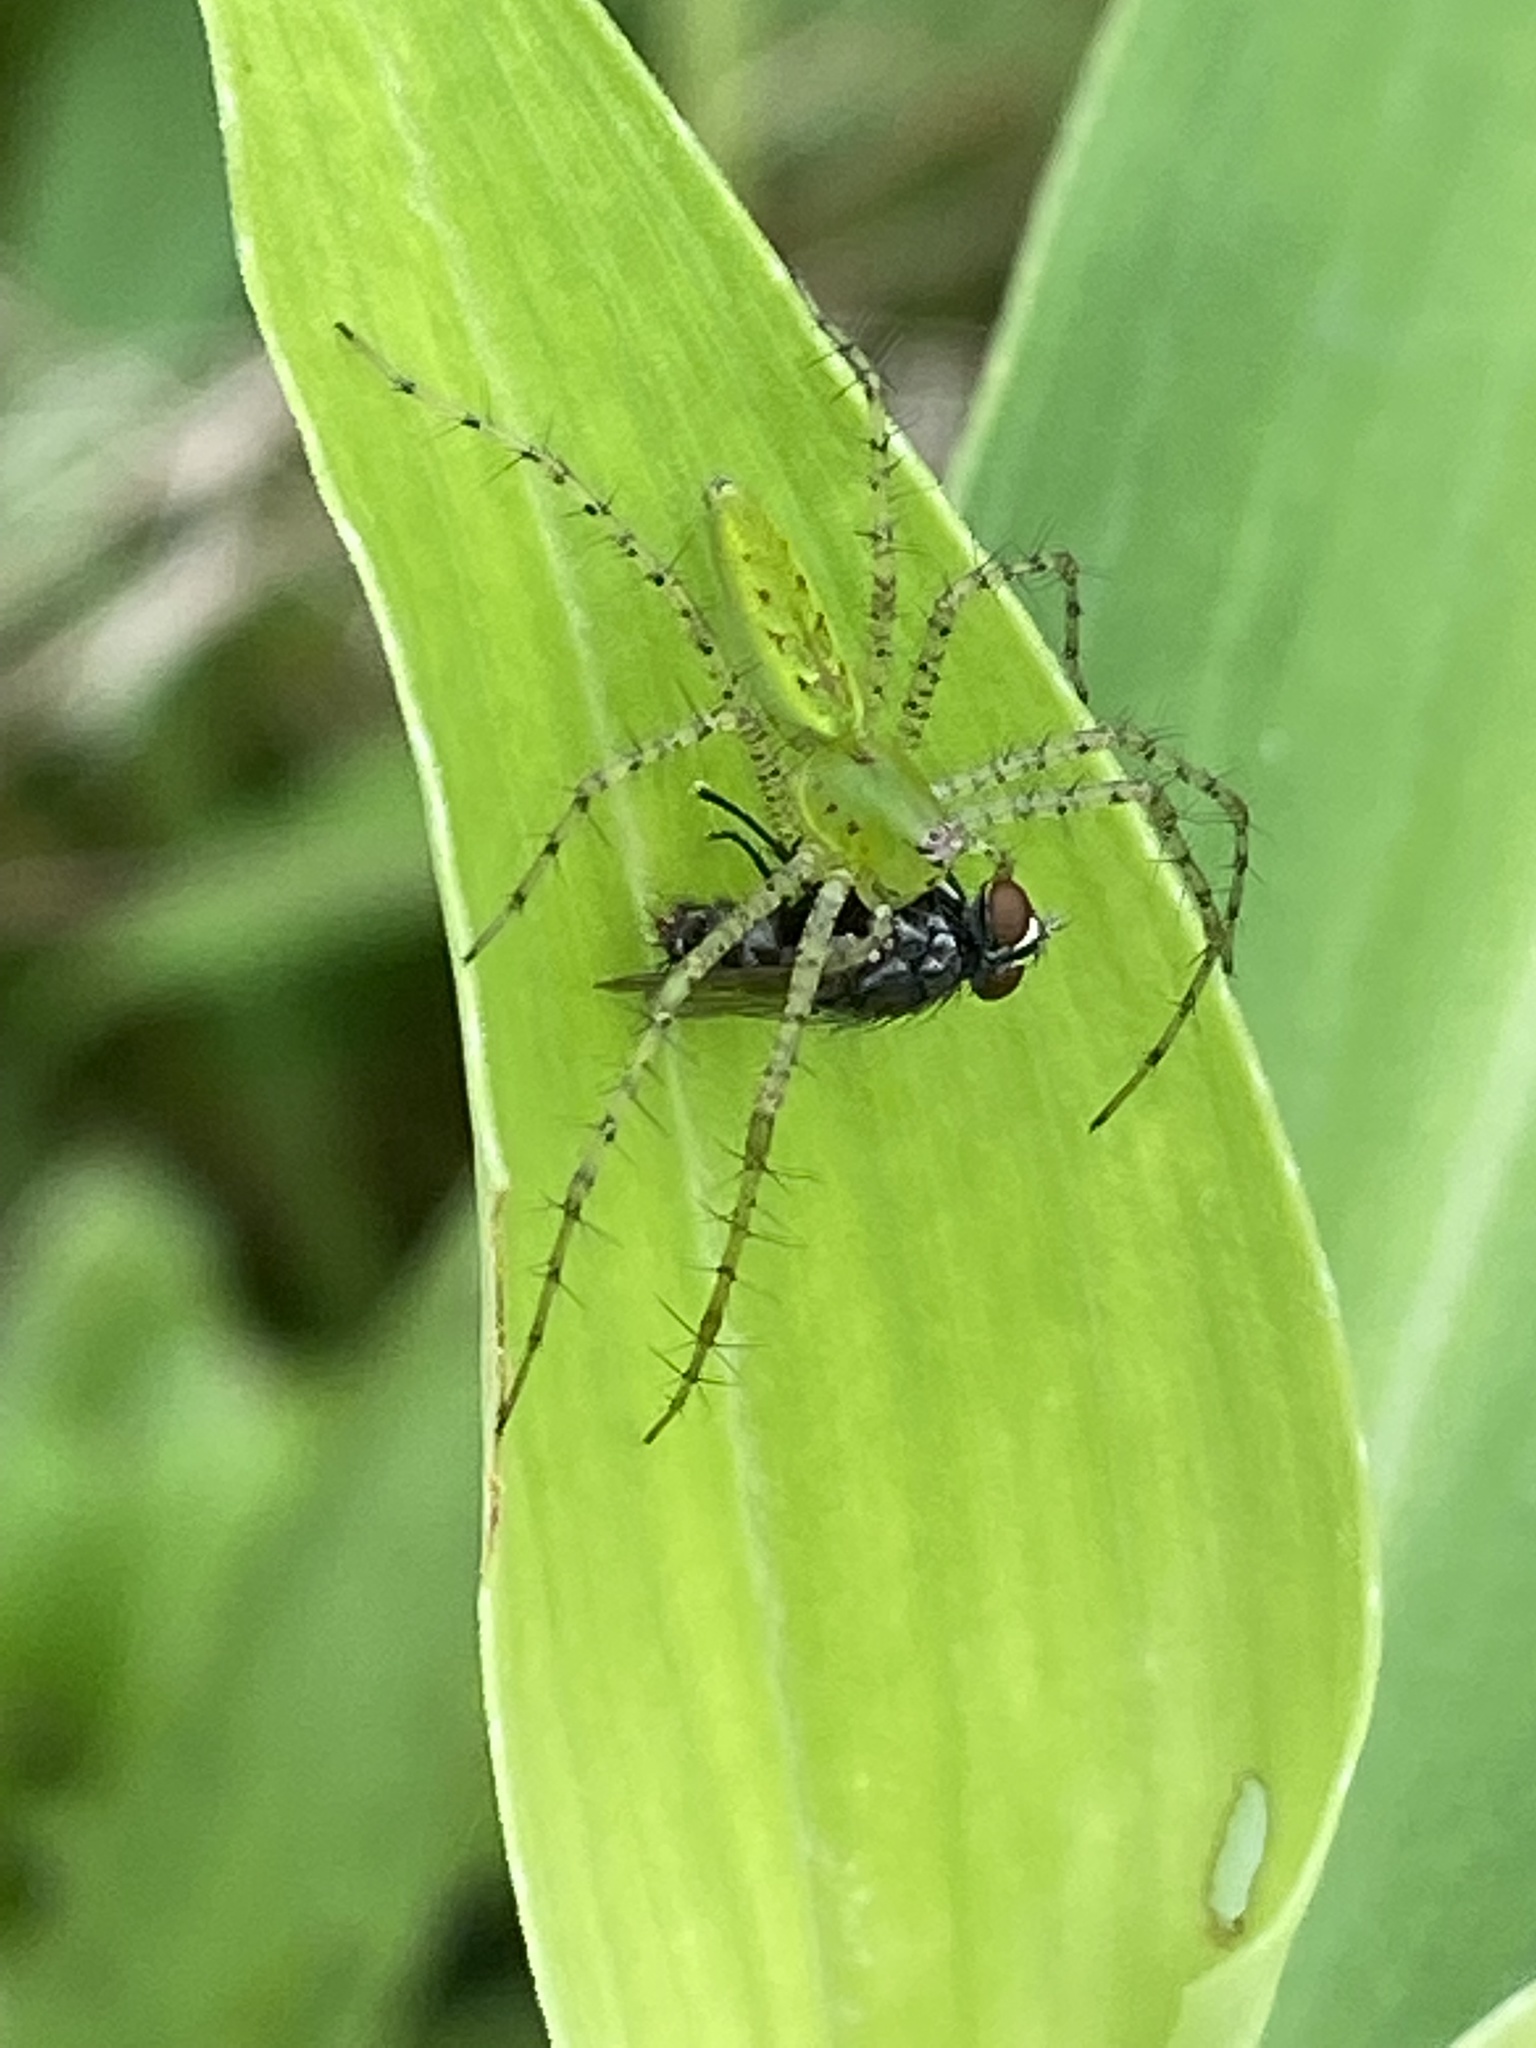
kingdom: Animalia
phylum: Arthropoda
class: Arachnida
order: Araneae
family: Oxyopidae
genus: Peucetia
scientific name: Peucetia viridans
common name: Lynx spiders
